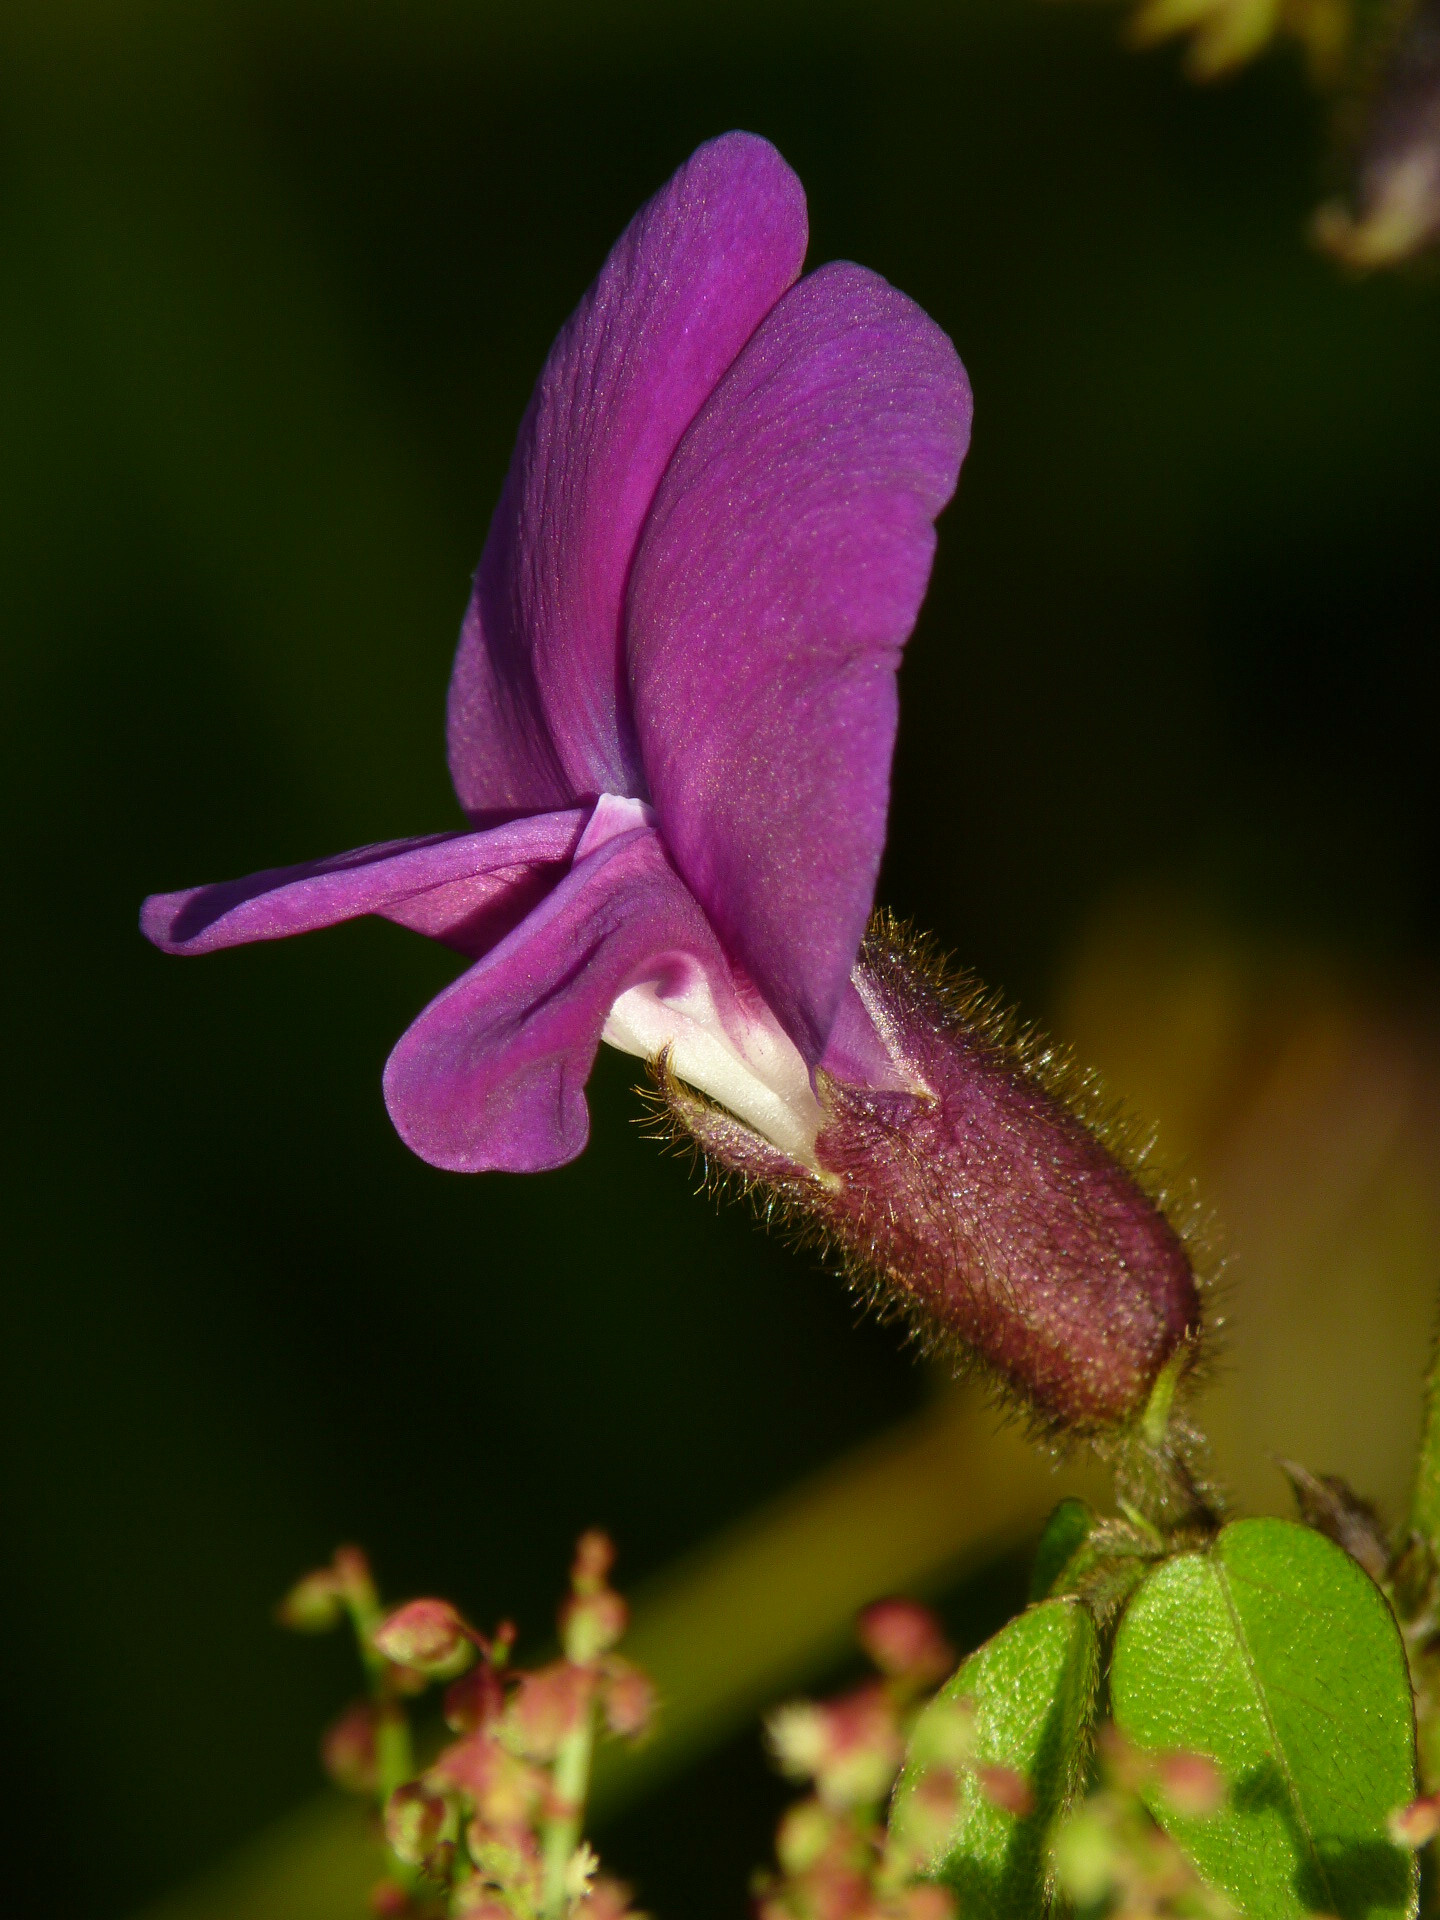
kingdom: Plantae
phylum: Tracheophyta
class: Magnoliopsida
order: Fabales
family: Fabaceae
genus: Cologania
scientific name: Cologania broussonetii
